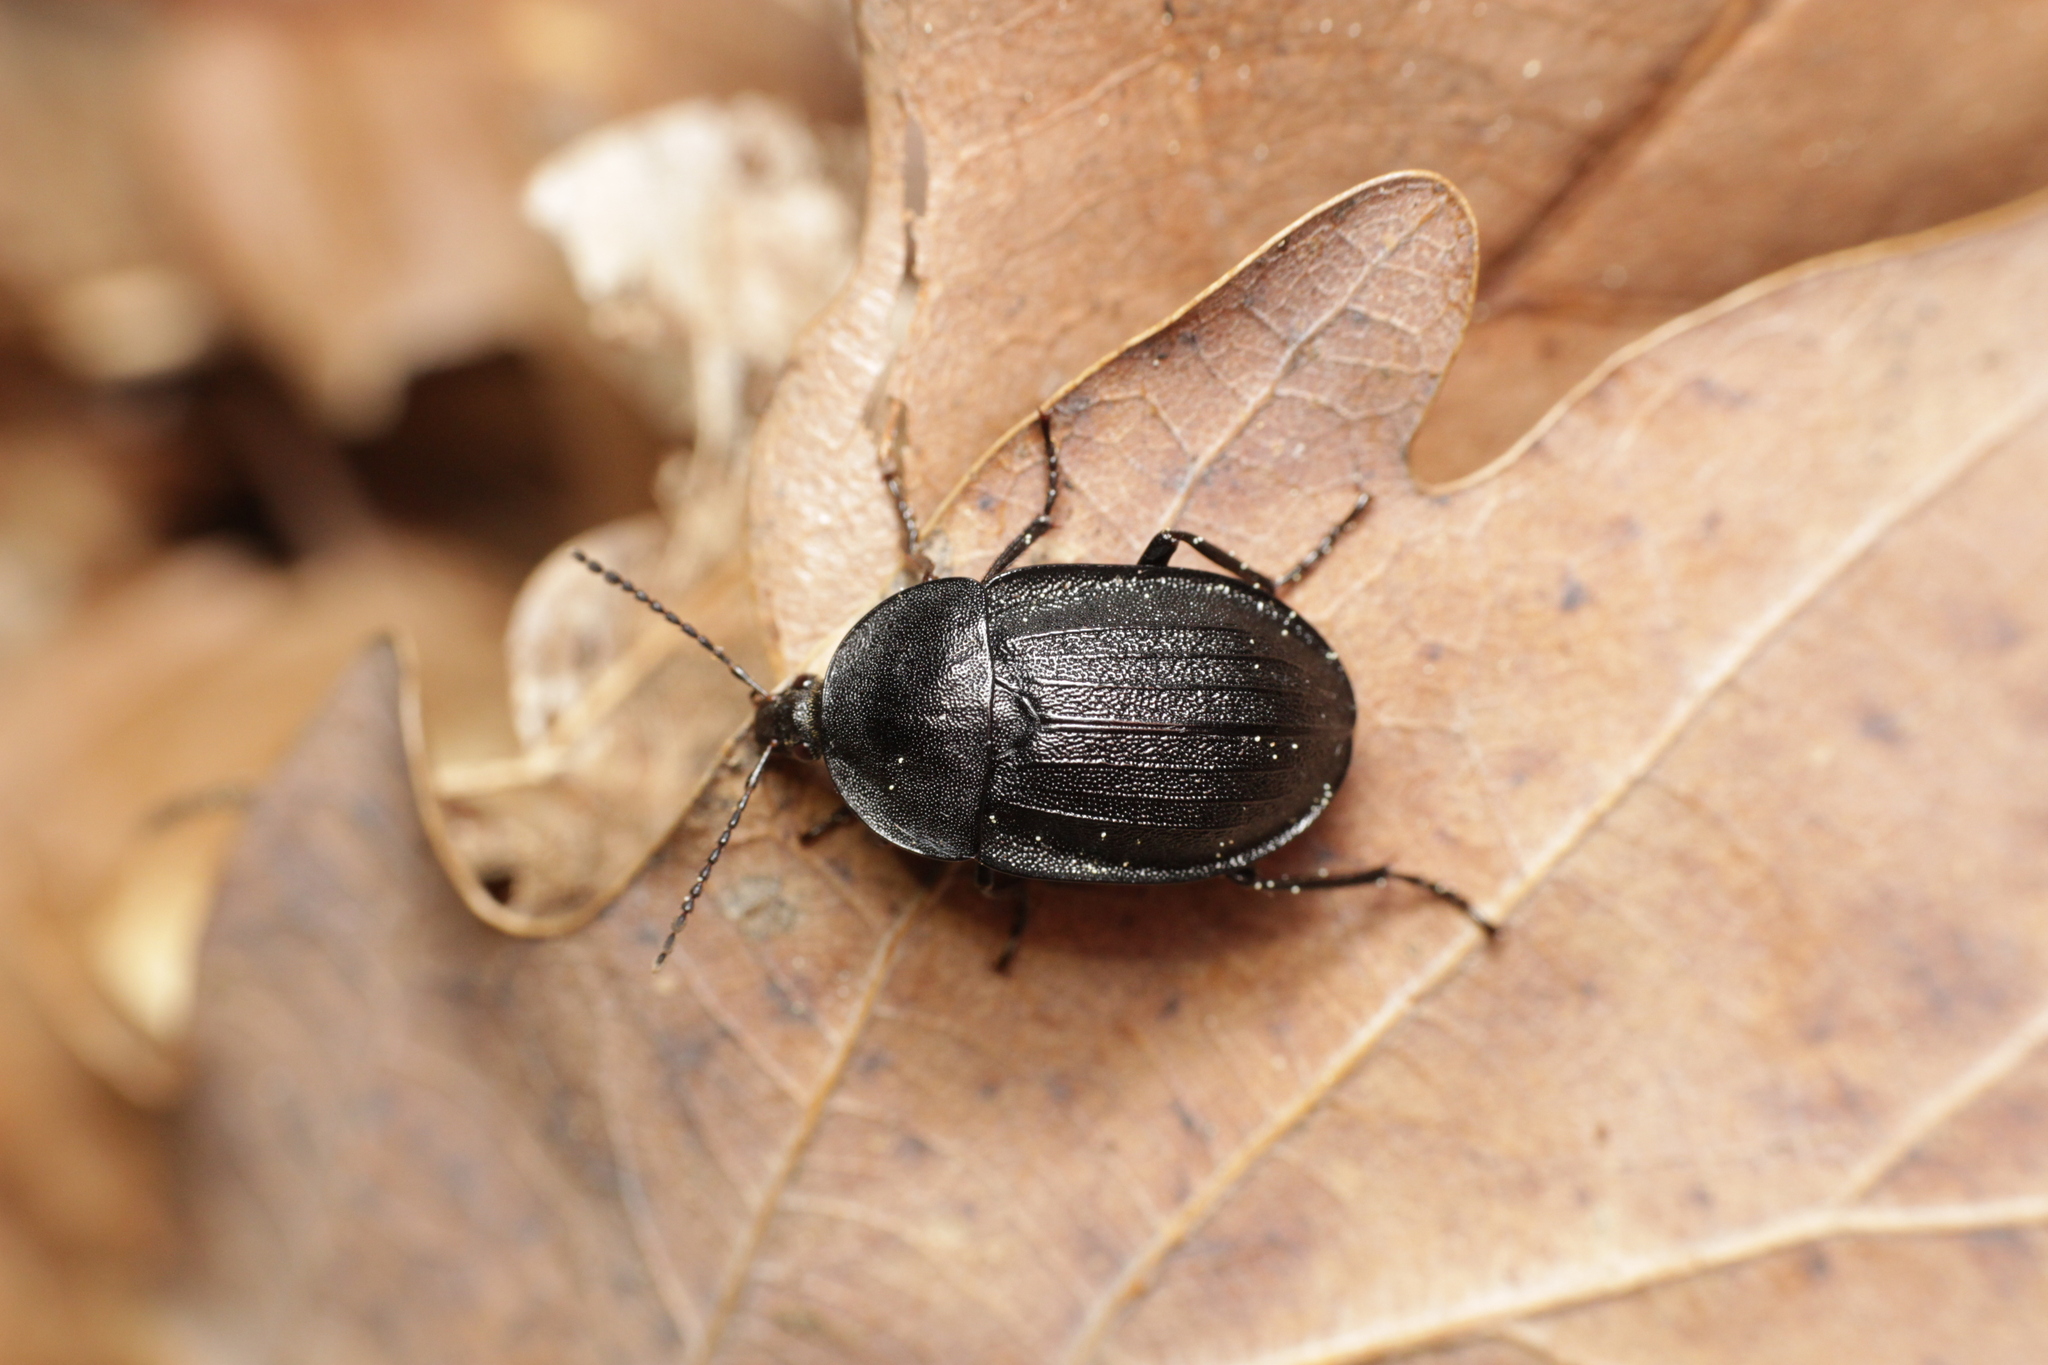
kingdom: Animalia
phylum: Arthropoda
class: Insecta
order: Coleoptera
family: Staphylinidae
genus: Silpha
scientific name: Silpha atrata
